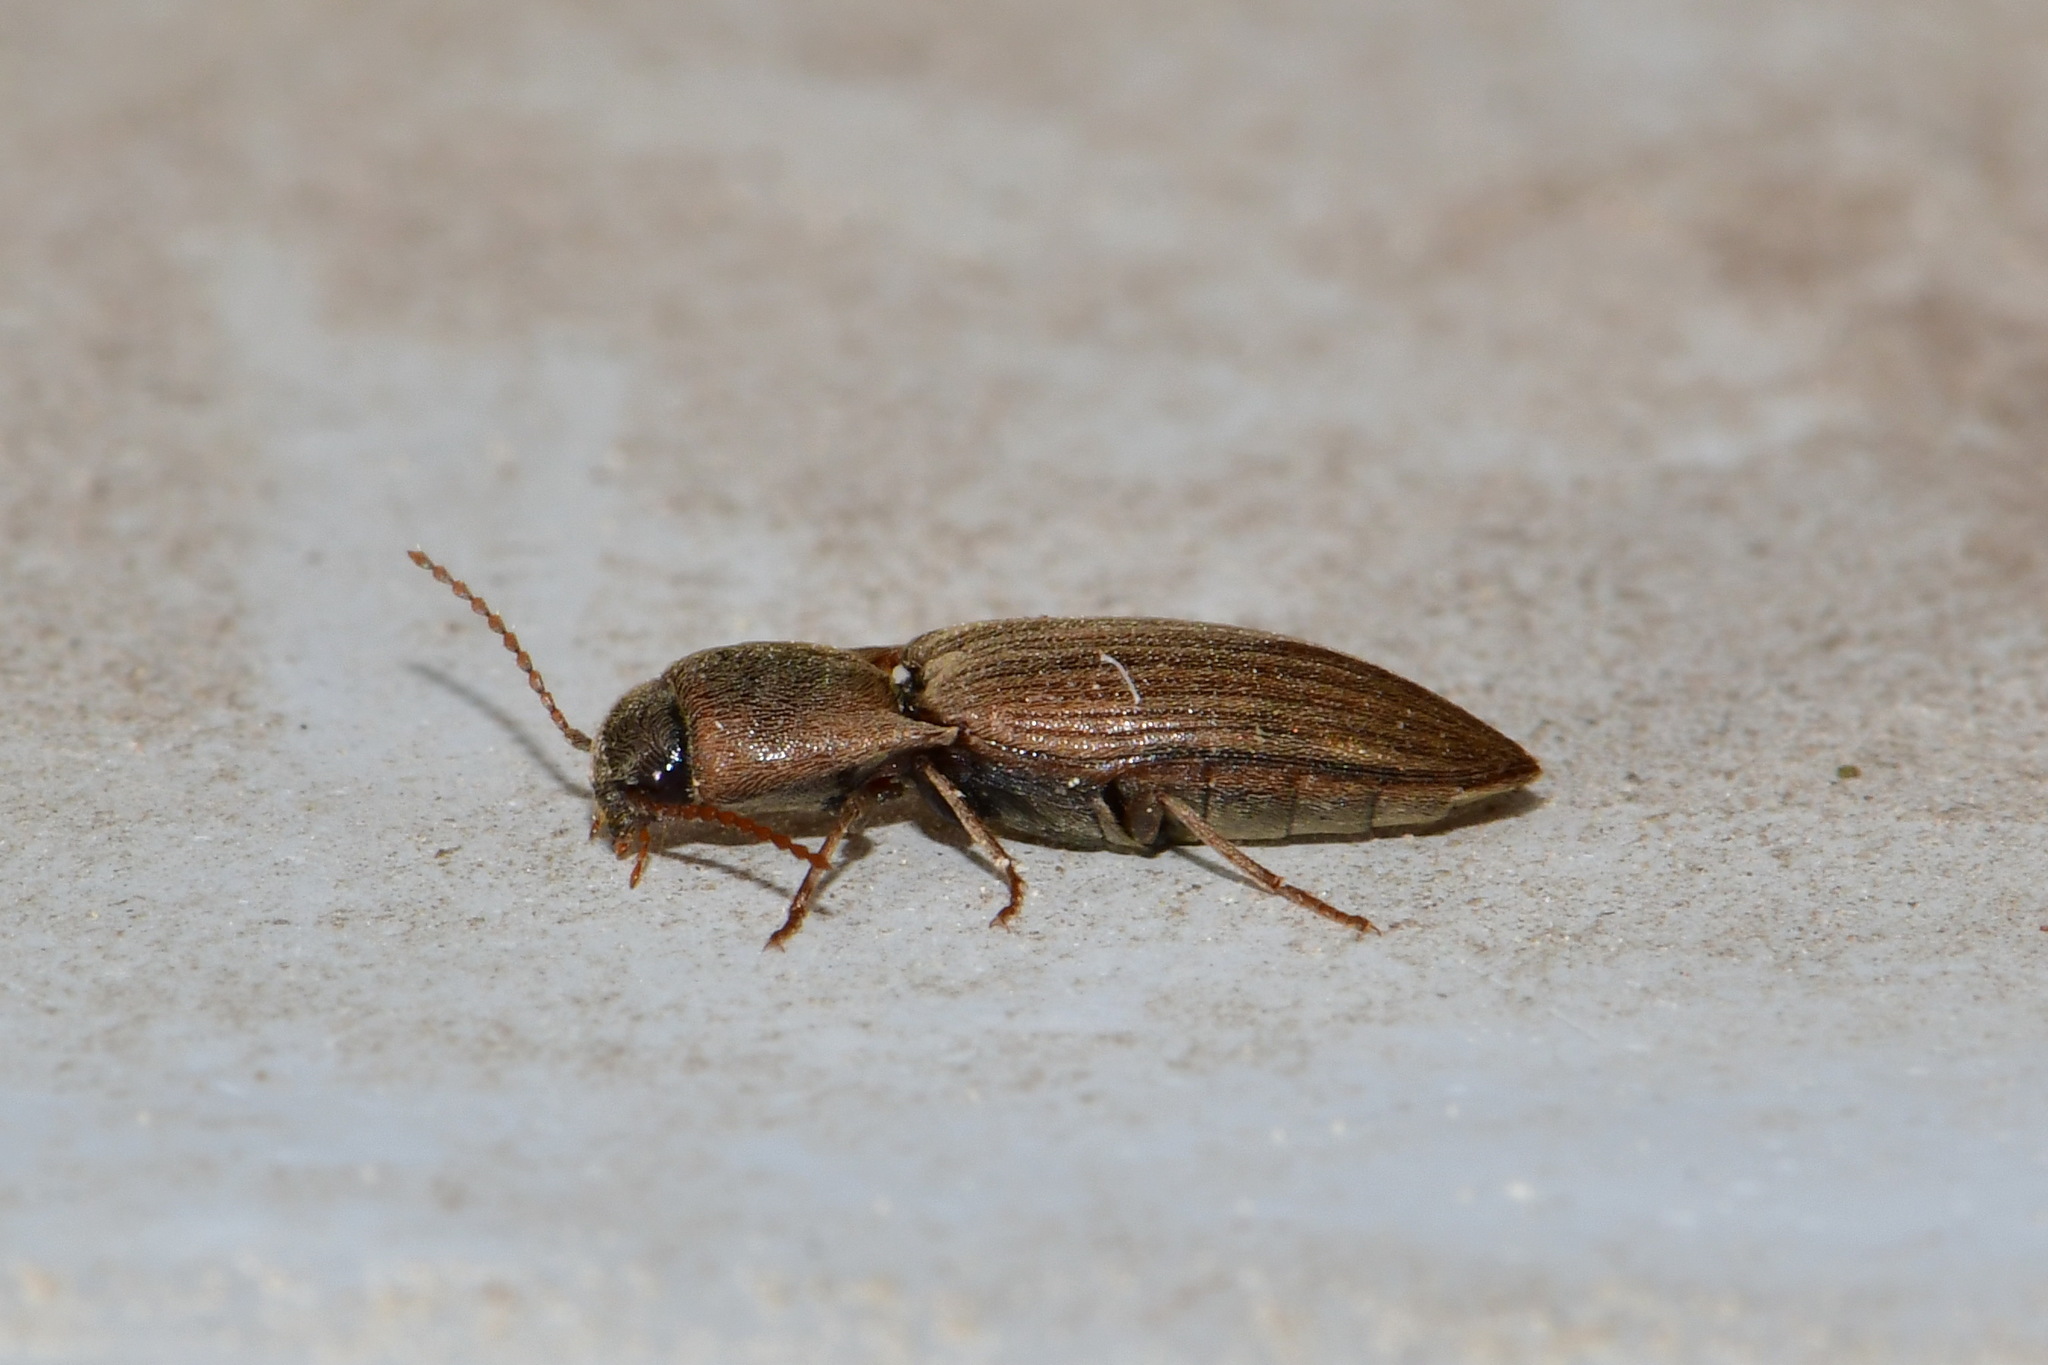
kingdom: Animalia
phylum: Arthropoda
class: Insecta
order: Coleoptera
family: Elateridae
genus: Agriotes
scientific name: Agriotes lineatus
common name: Lined click beetle
